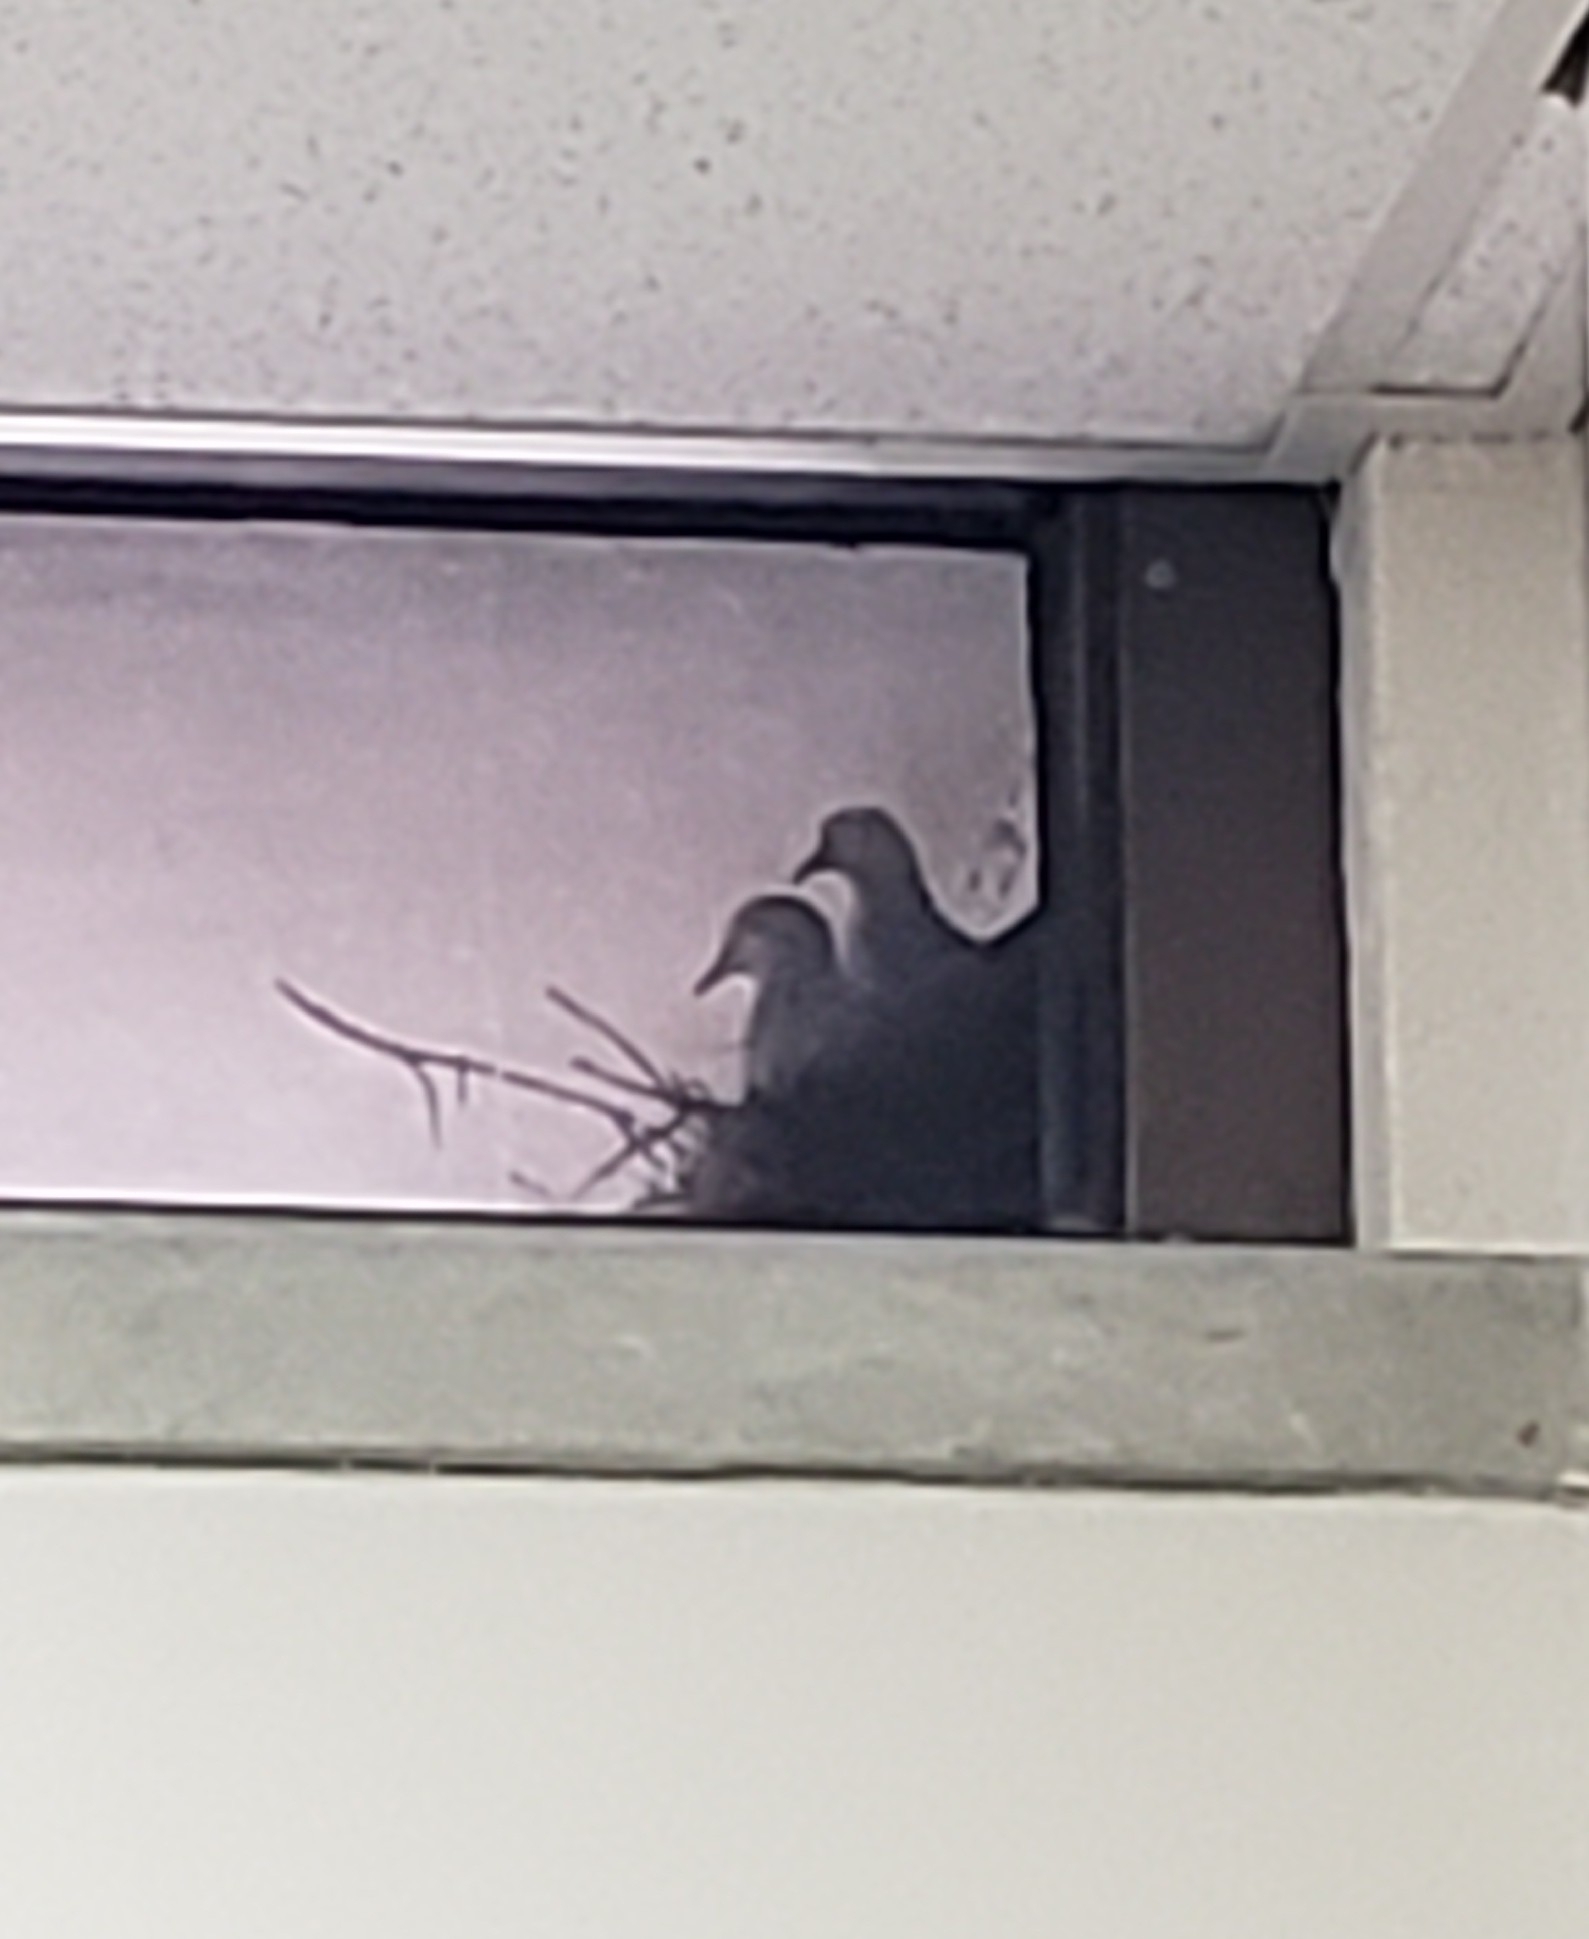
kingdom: Animalia
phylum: Chordata
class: Aves
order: Columbiformes
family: Columbidae
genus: Zenaida
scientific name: Zenaida macroura
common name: Mourning dove
